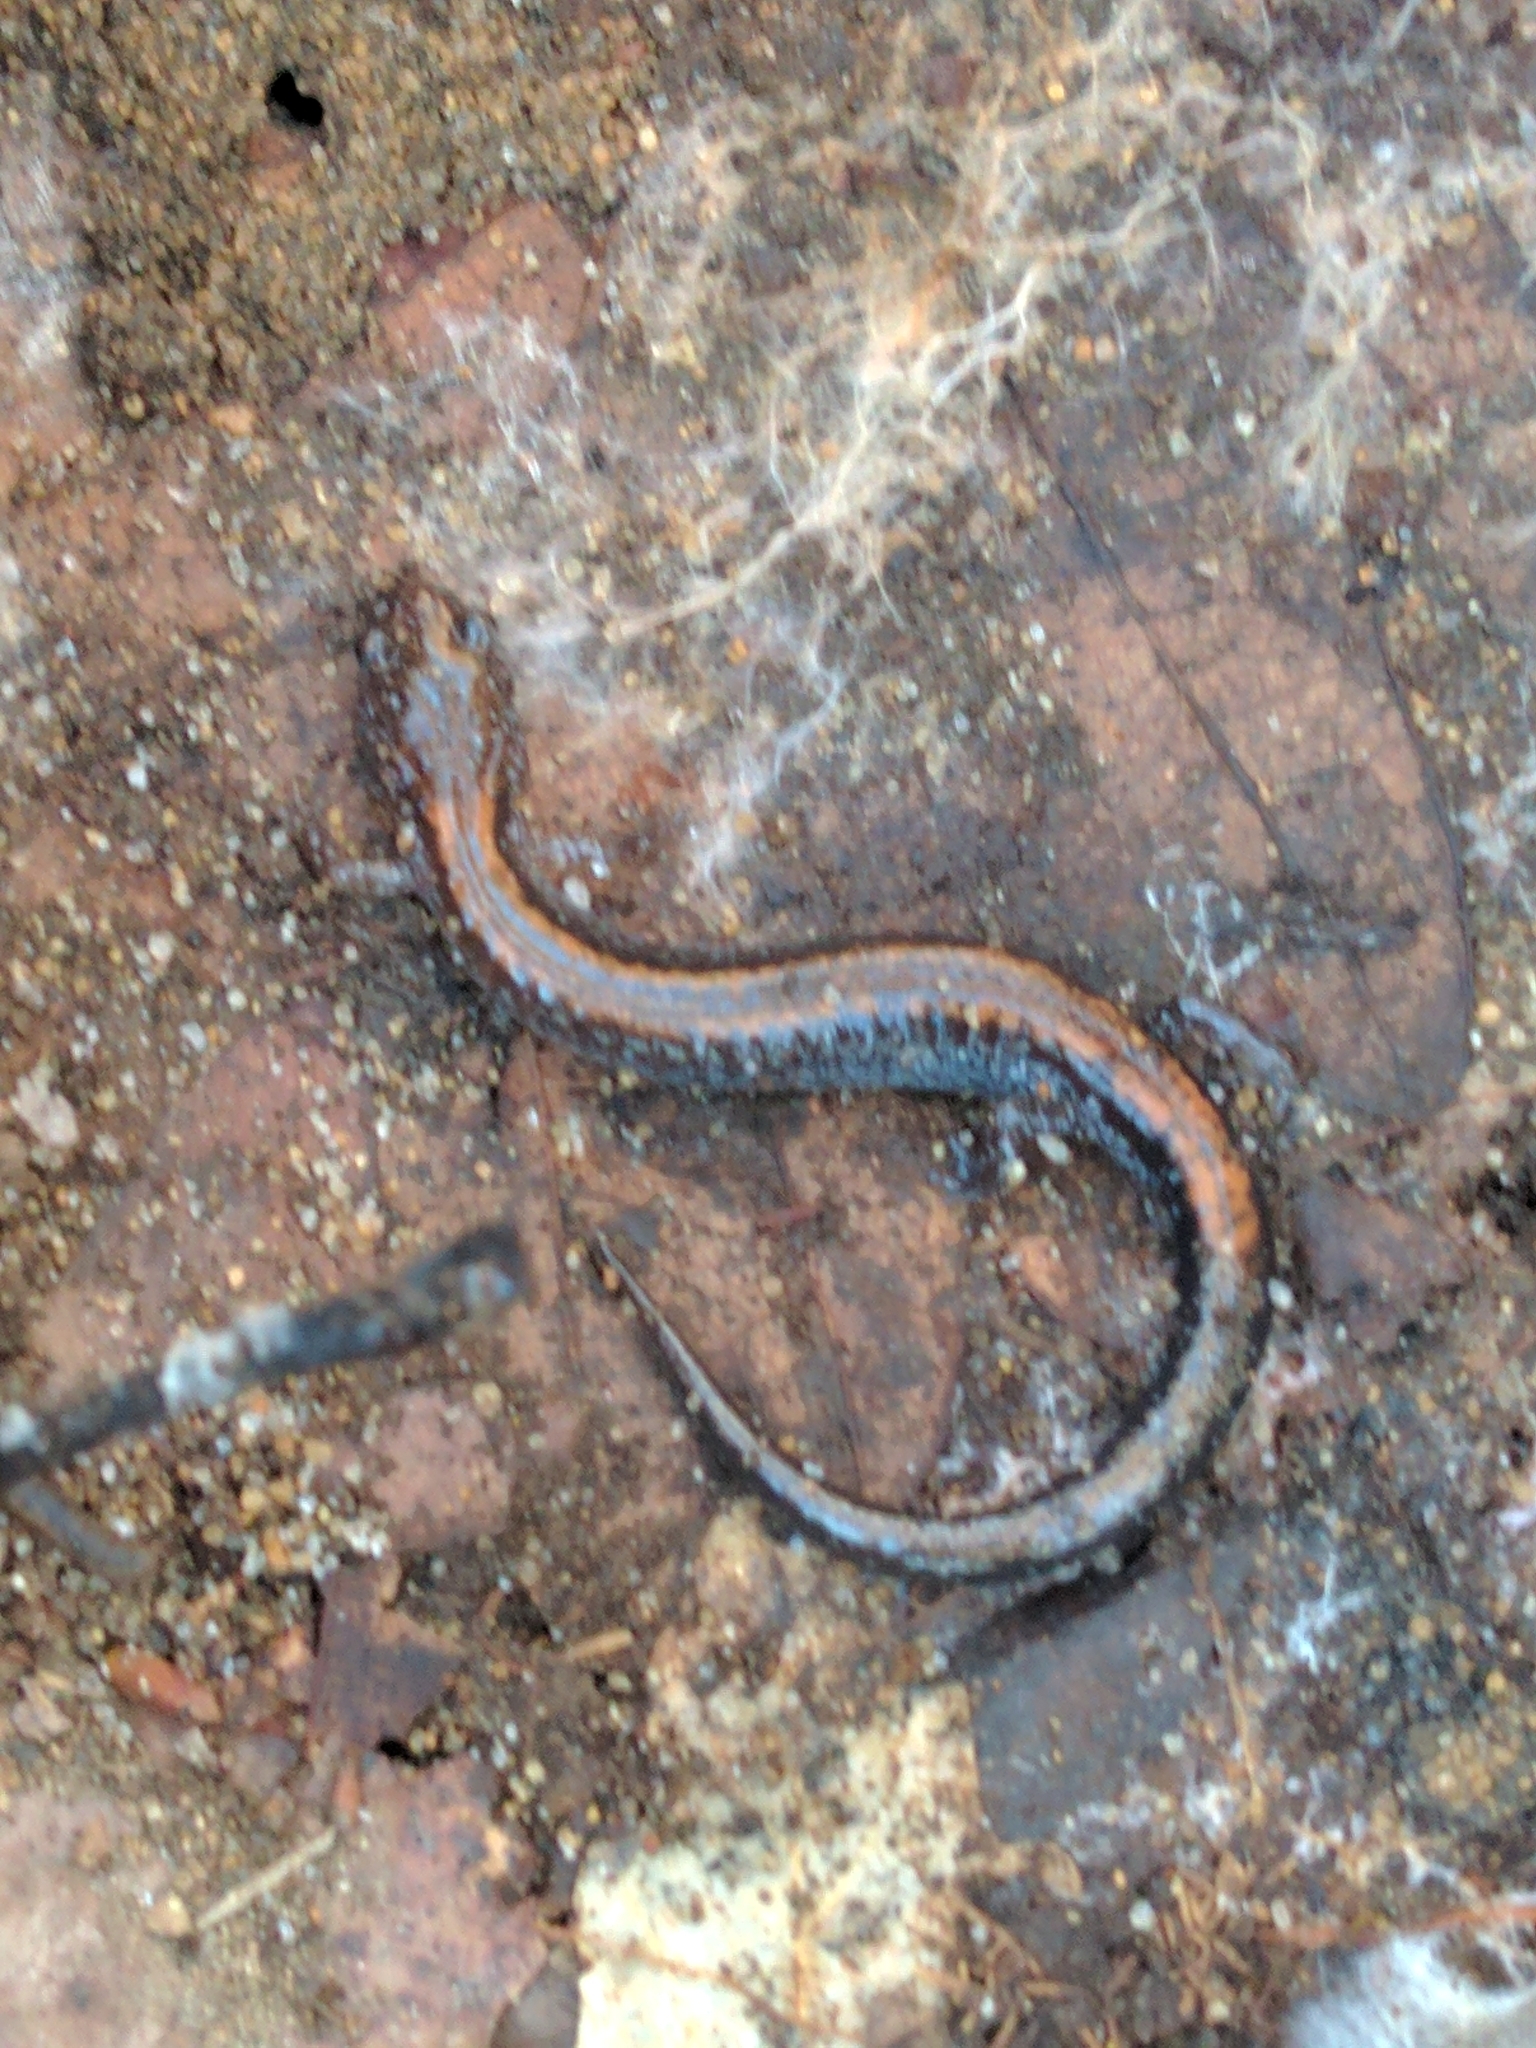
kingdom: Animalia
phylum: Chordata
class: Amphibia
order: Caudata
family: Plethodontidae
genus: Plethodon
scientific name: Plethodon cinereus
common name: Redback salamander
